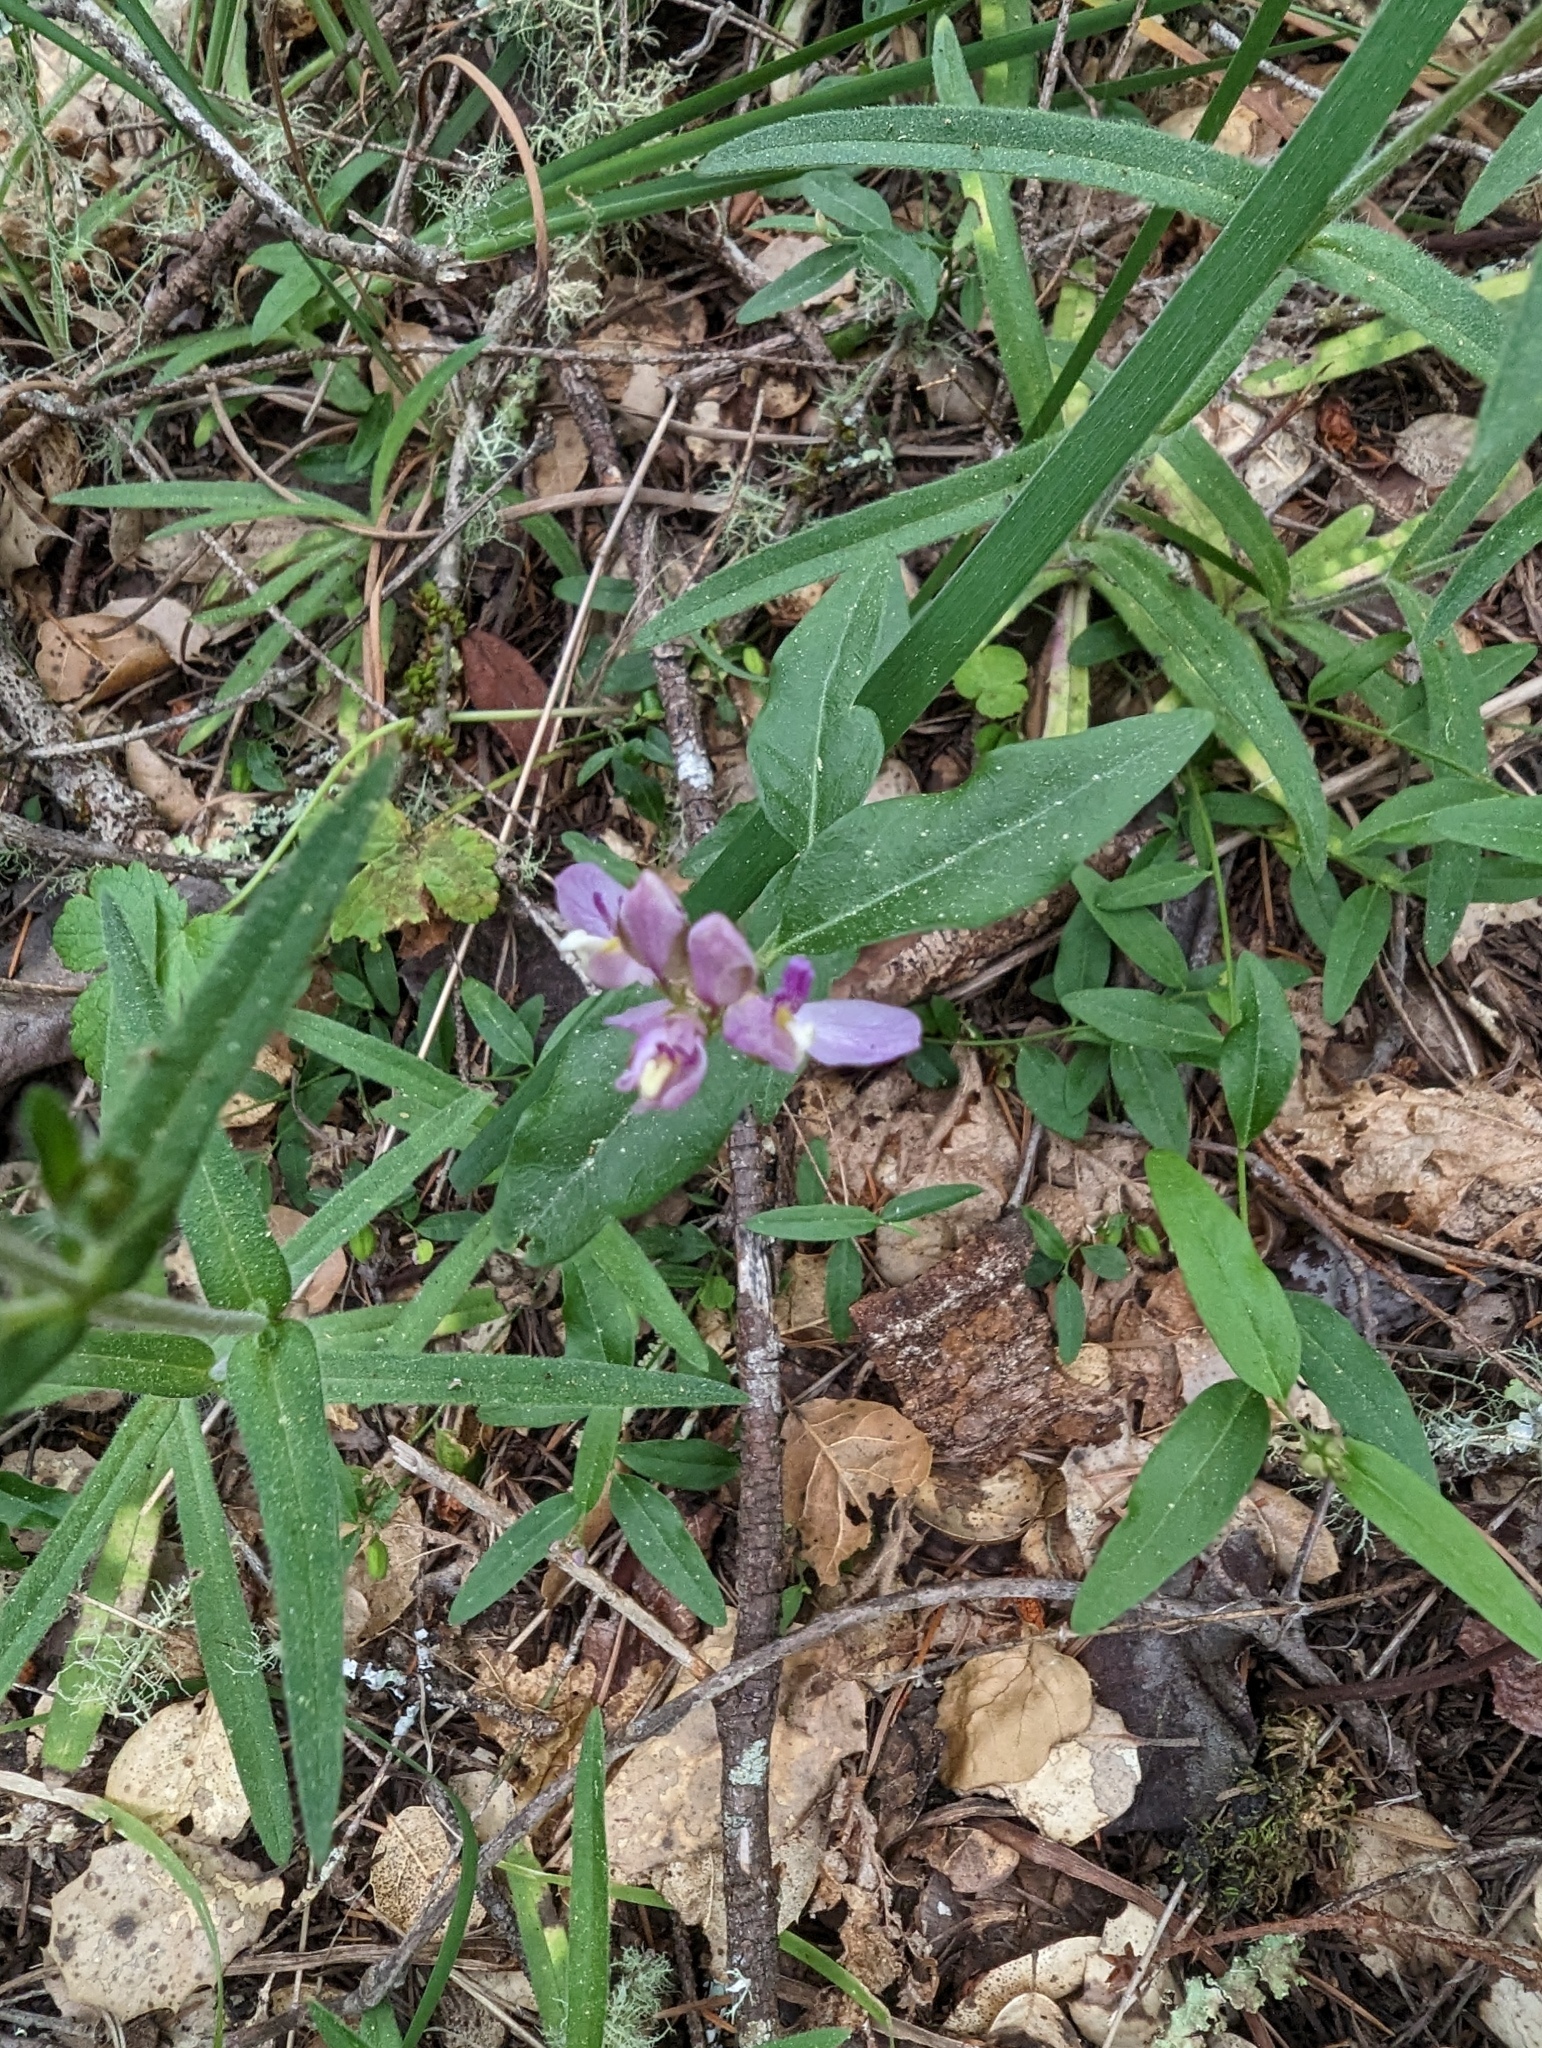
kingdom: Plantae
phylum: Tracheophyta
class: Magnoliopsida
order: Fabales
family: Polygalaceae
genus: Rhinotropis
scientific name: Rhinotropis californica
